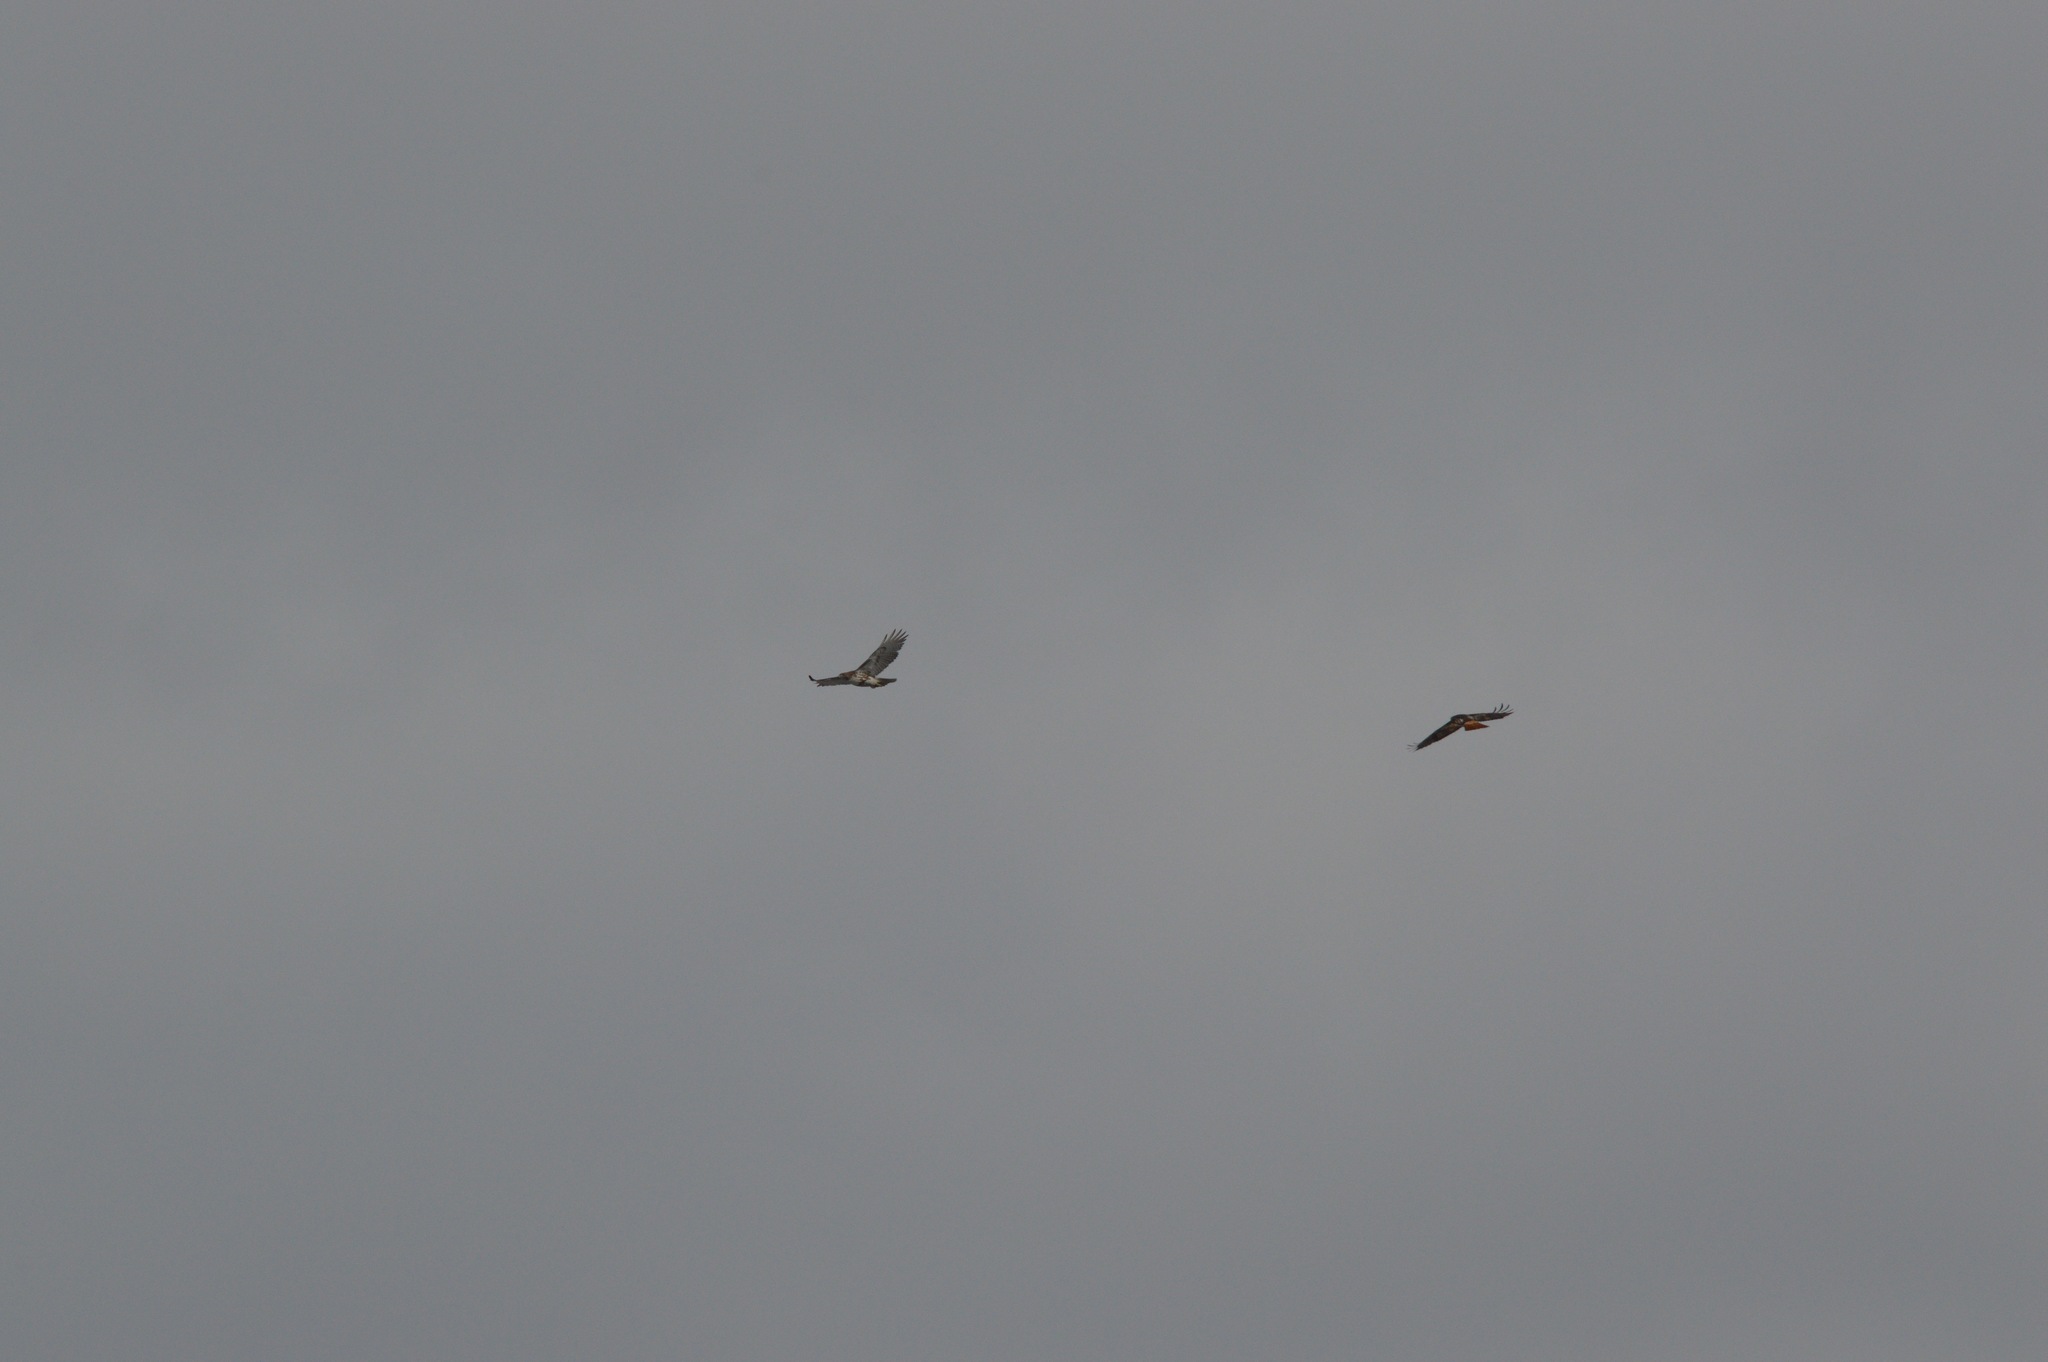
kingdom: Animalia
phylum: Chordata
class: Aves
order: Accipitriformes
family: Accipitridae
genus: Buteo
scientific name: Buteo jamaicensis
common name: Red-tailed hawk
